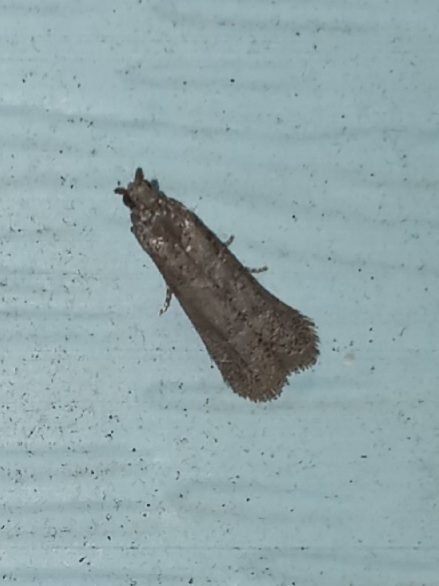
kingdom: Animalia
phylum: Arthropoda
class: Insecta
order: Lepidoptera
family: Pyralidae
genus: Cabnia
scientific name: Cabnia myronella
